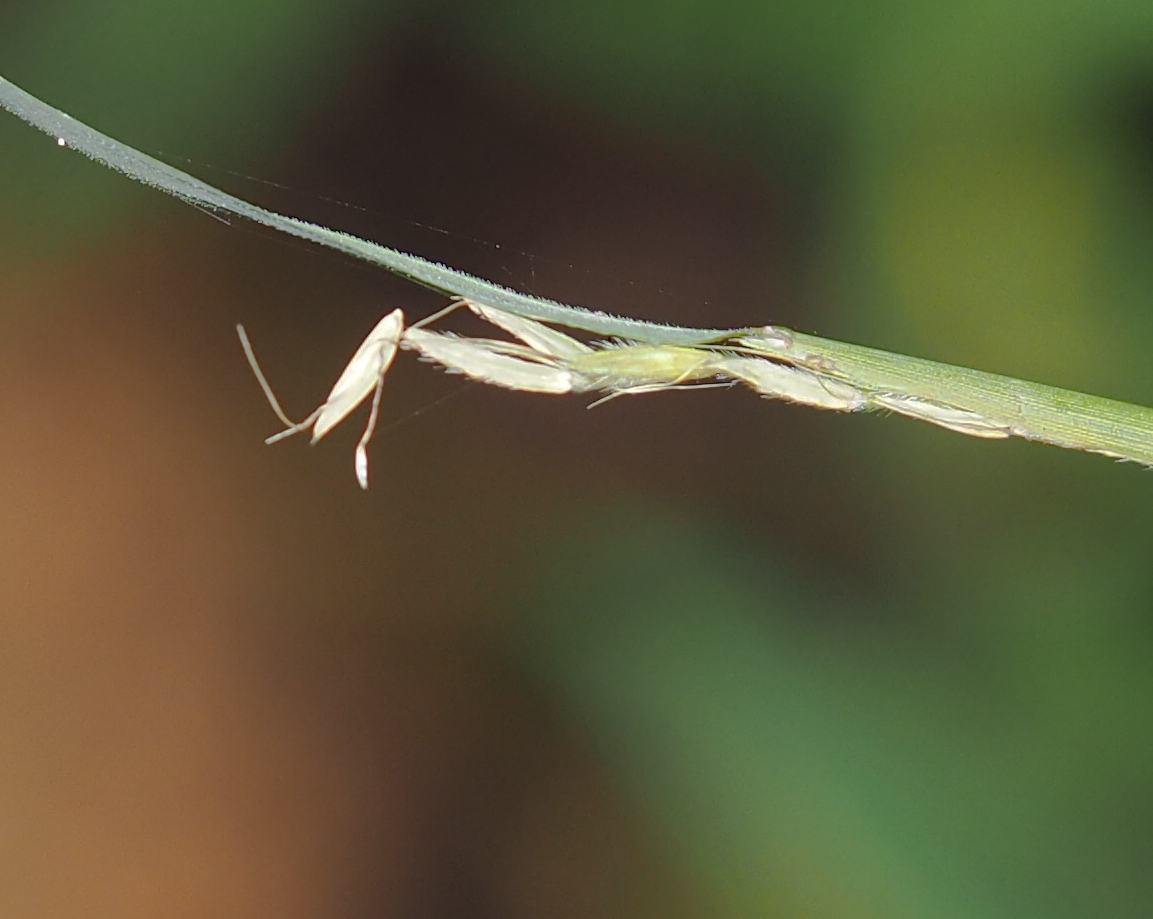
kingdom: Plantae
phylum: Tracheophyta
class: Liliopsida
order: Poales
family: Poaceae
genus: Microstegium
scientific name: Microstegium vimineum
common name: Japanese stiltgrass
